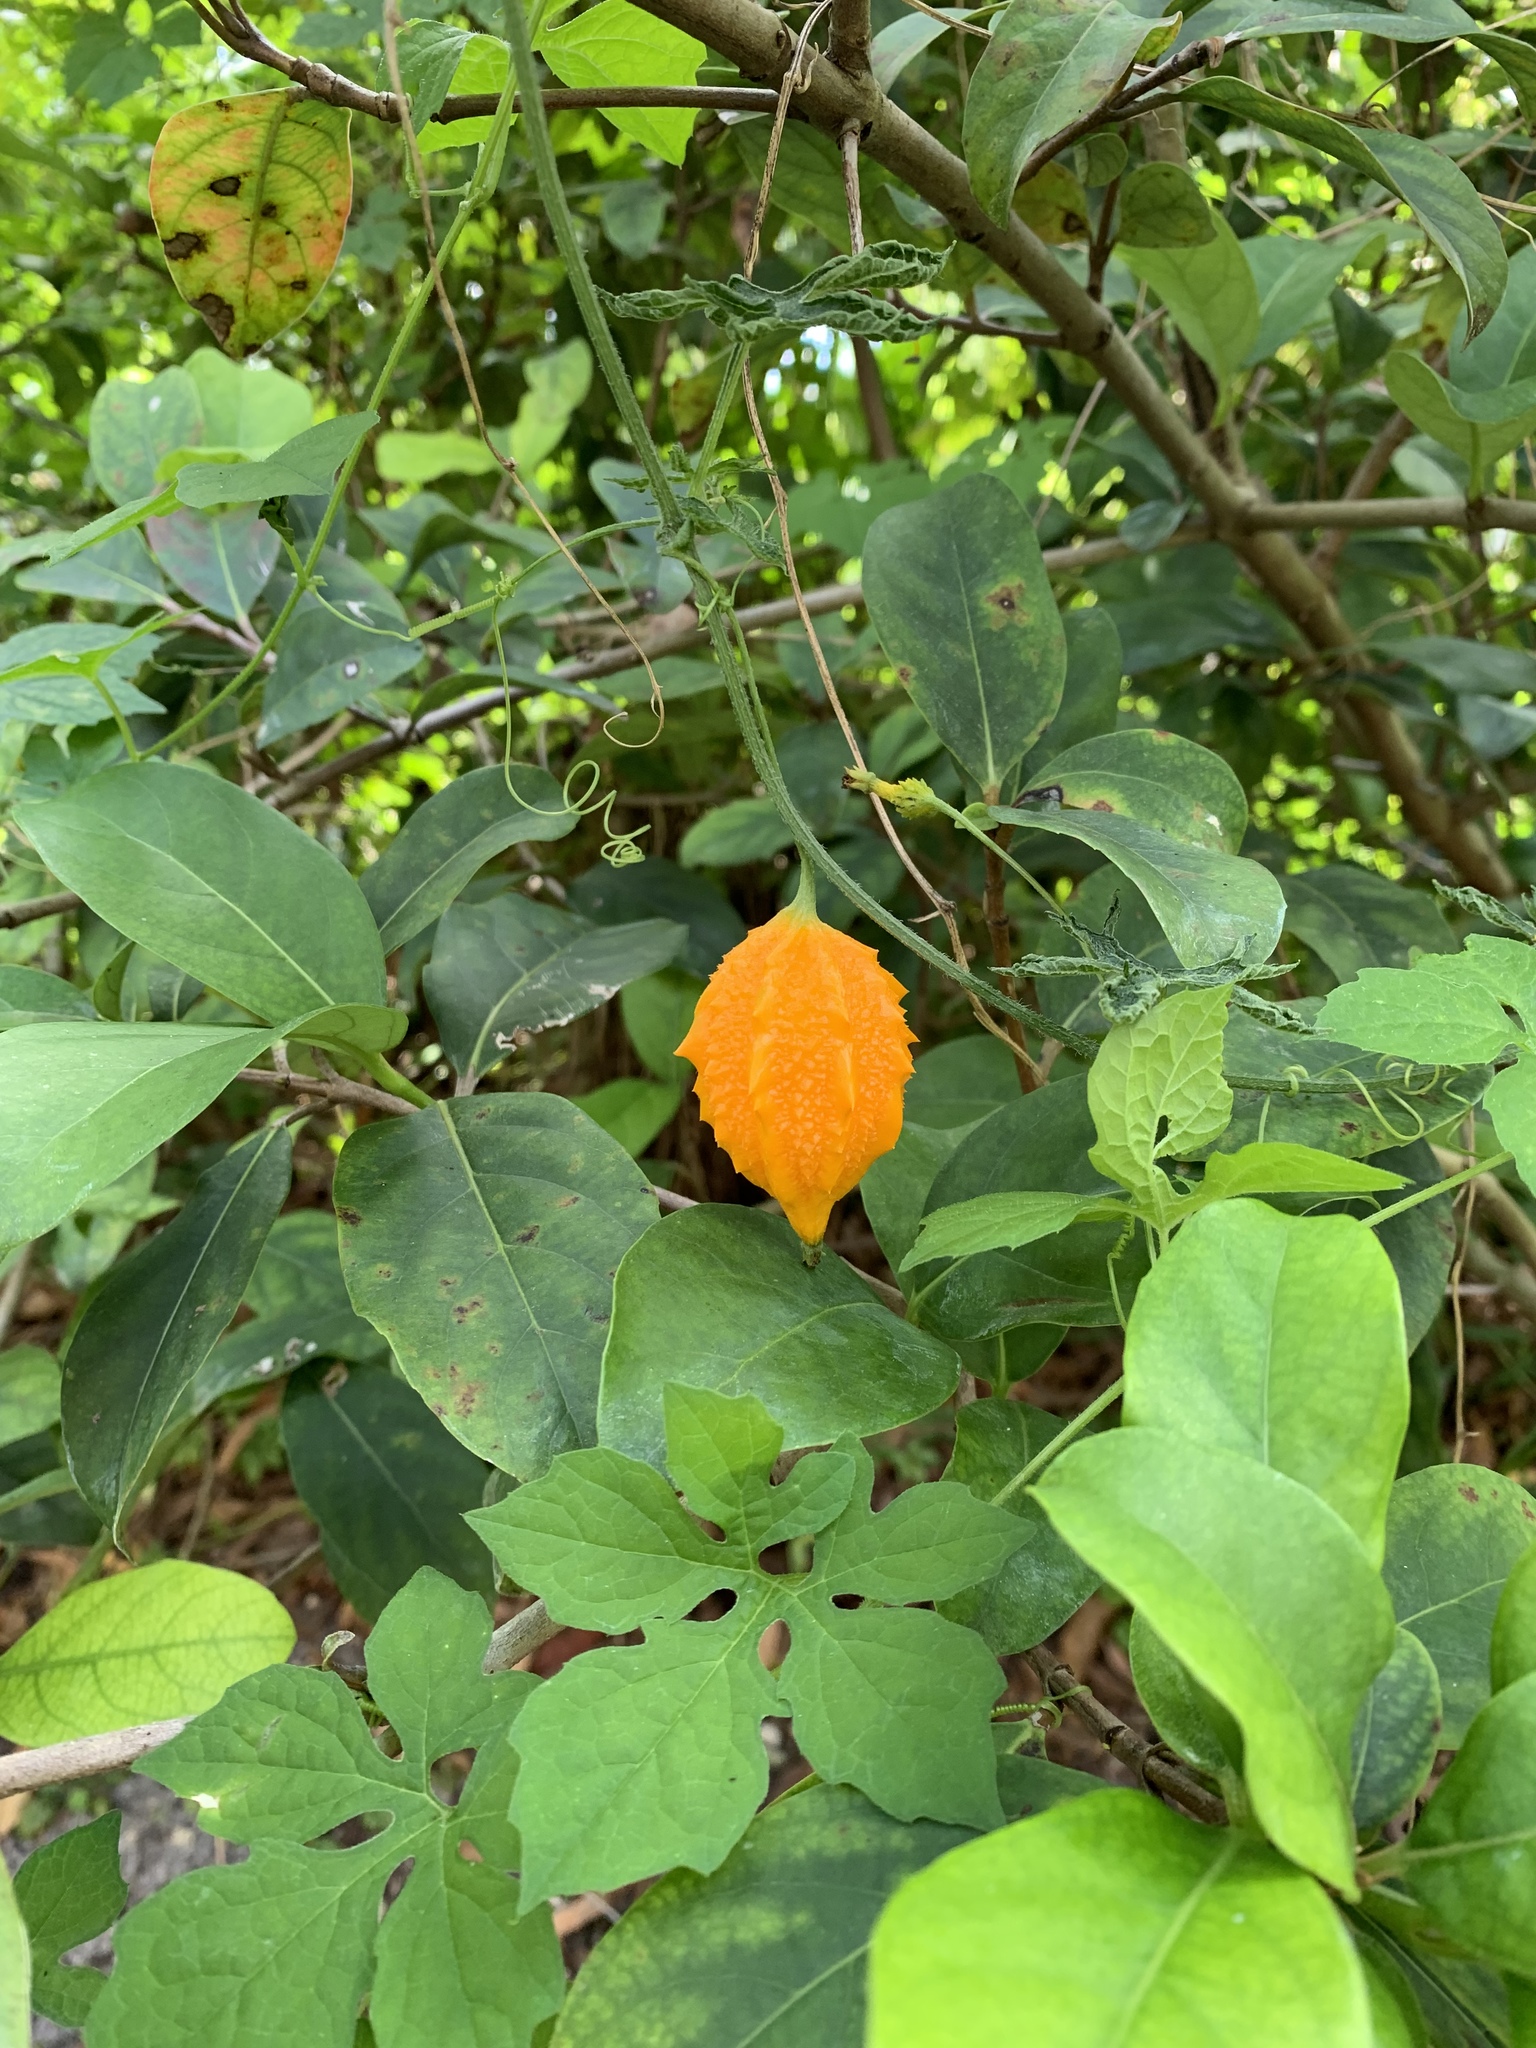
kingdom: Plantae
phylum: Tracheophyta
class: Magnoliopsida
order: Cucurbitales
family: Cucurbitaceae
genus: Momordica
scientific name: Momordica charantia
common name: Balsampear
